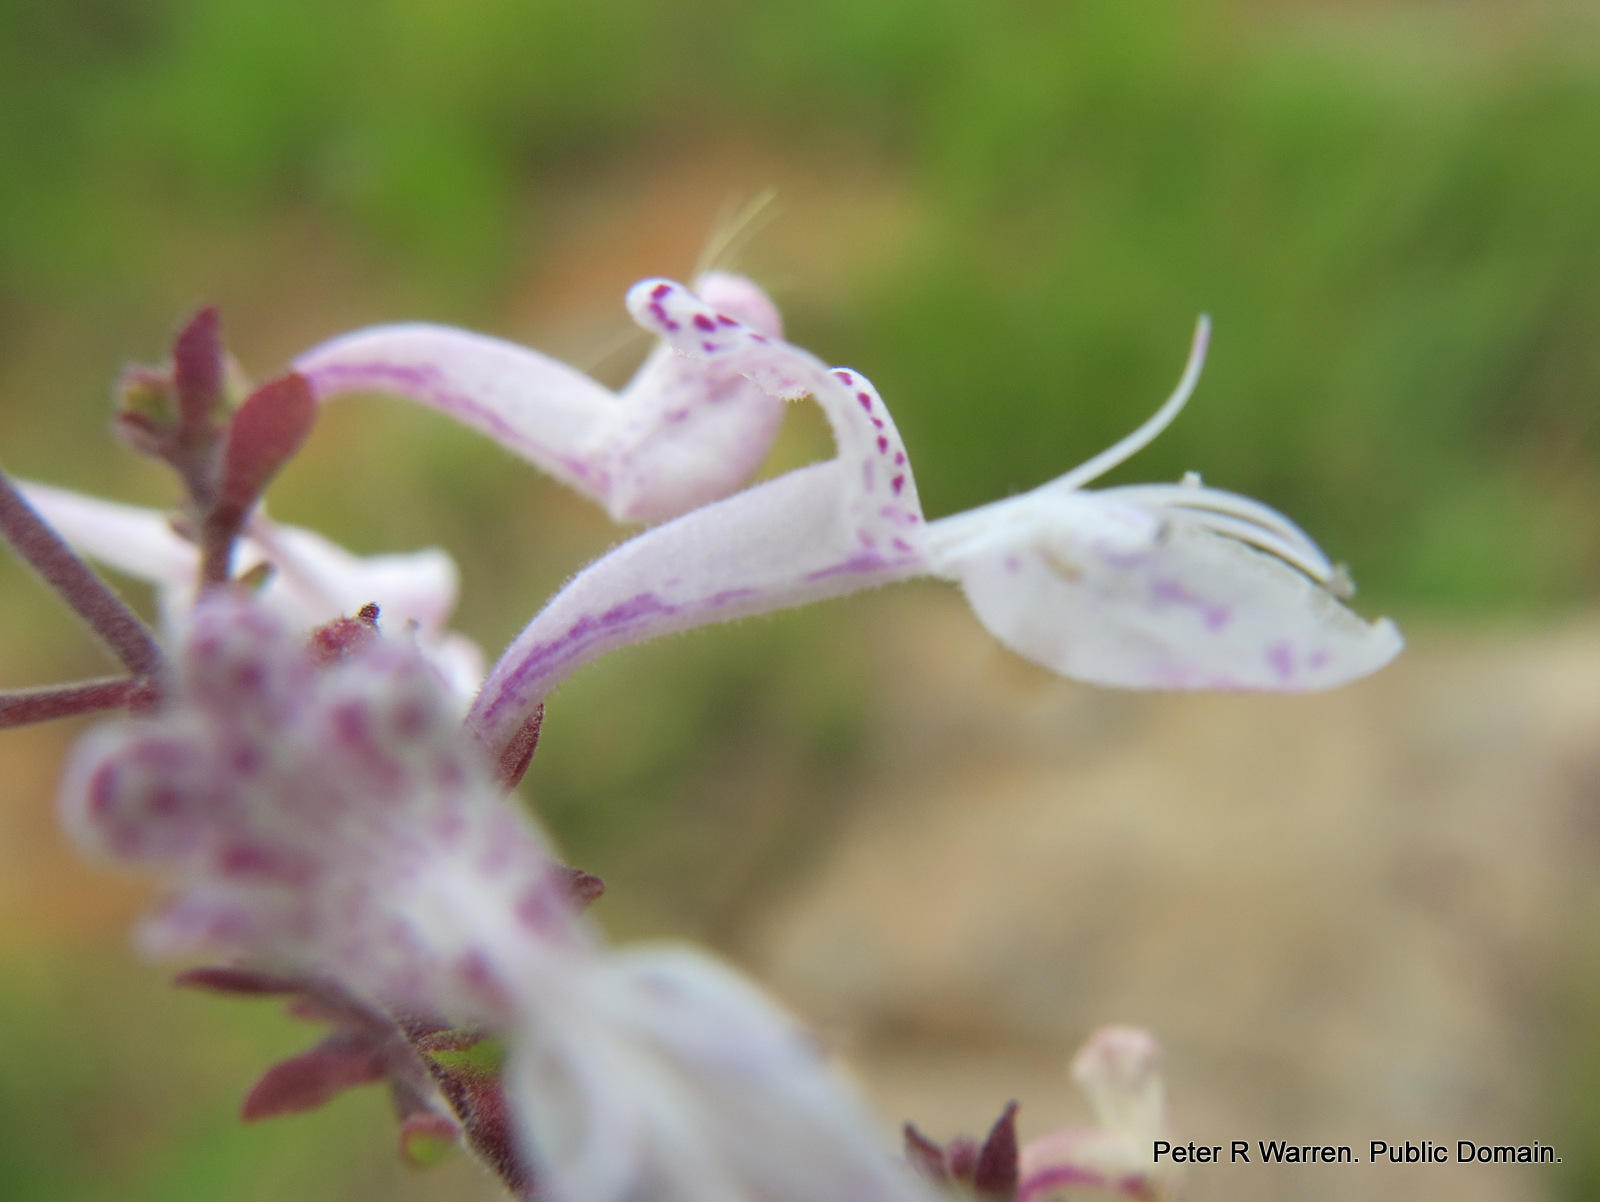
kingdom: Plantae
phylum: Tracheophyta
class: Magnoliopsida
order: Lamiales
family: Lamiaceae
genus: Aeollanthus
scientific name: Aeollanthus parvifolius
